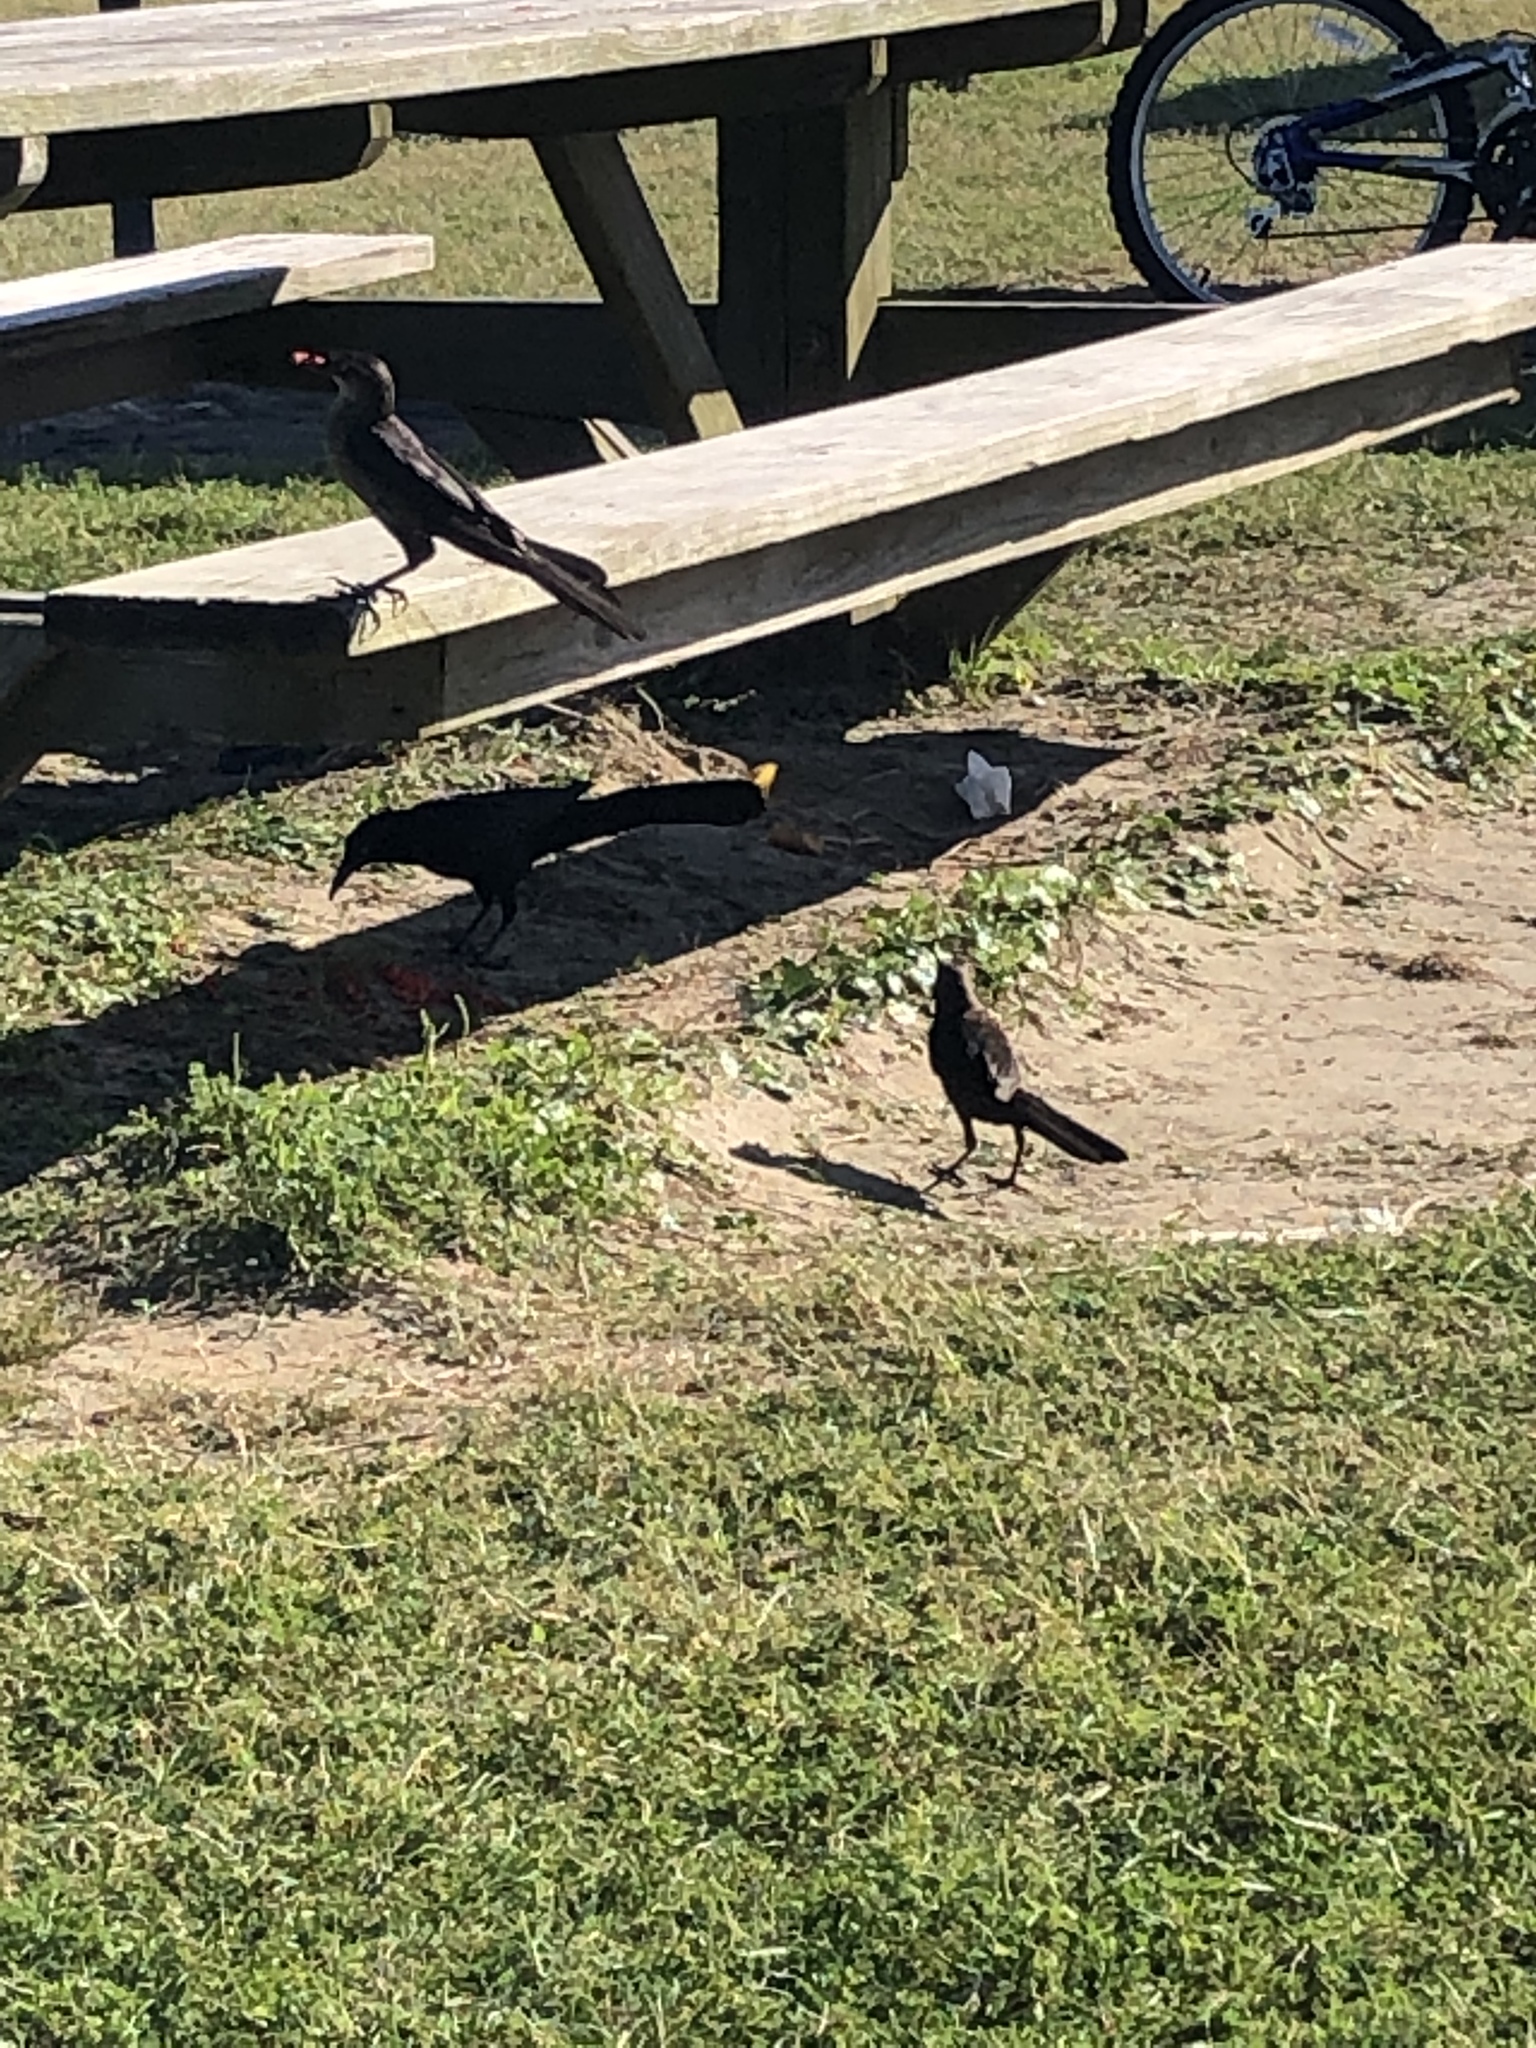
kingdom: Animalia
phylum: Chordata
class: Aves
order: Passeriformes
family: Icteridae
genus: Quiscalus
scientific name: Quiscalus mexicanus
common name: Great-tailed grackle
